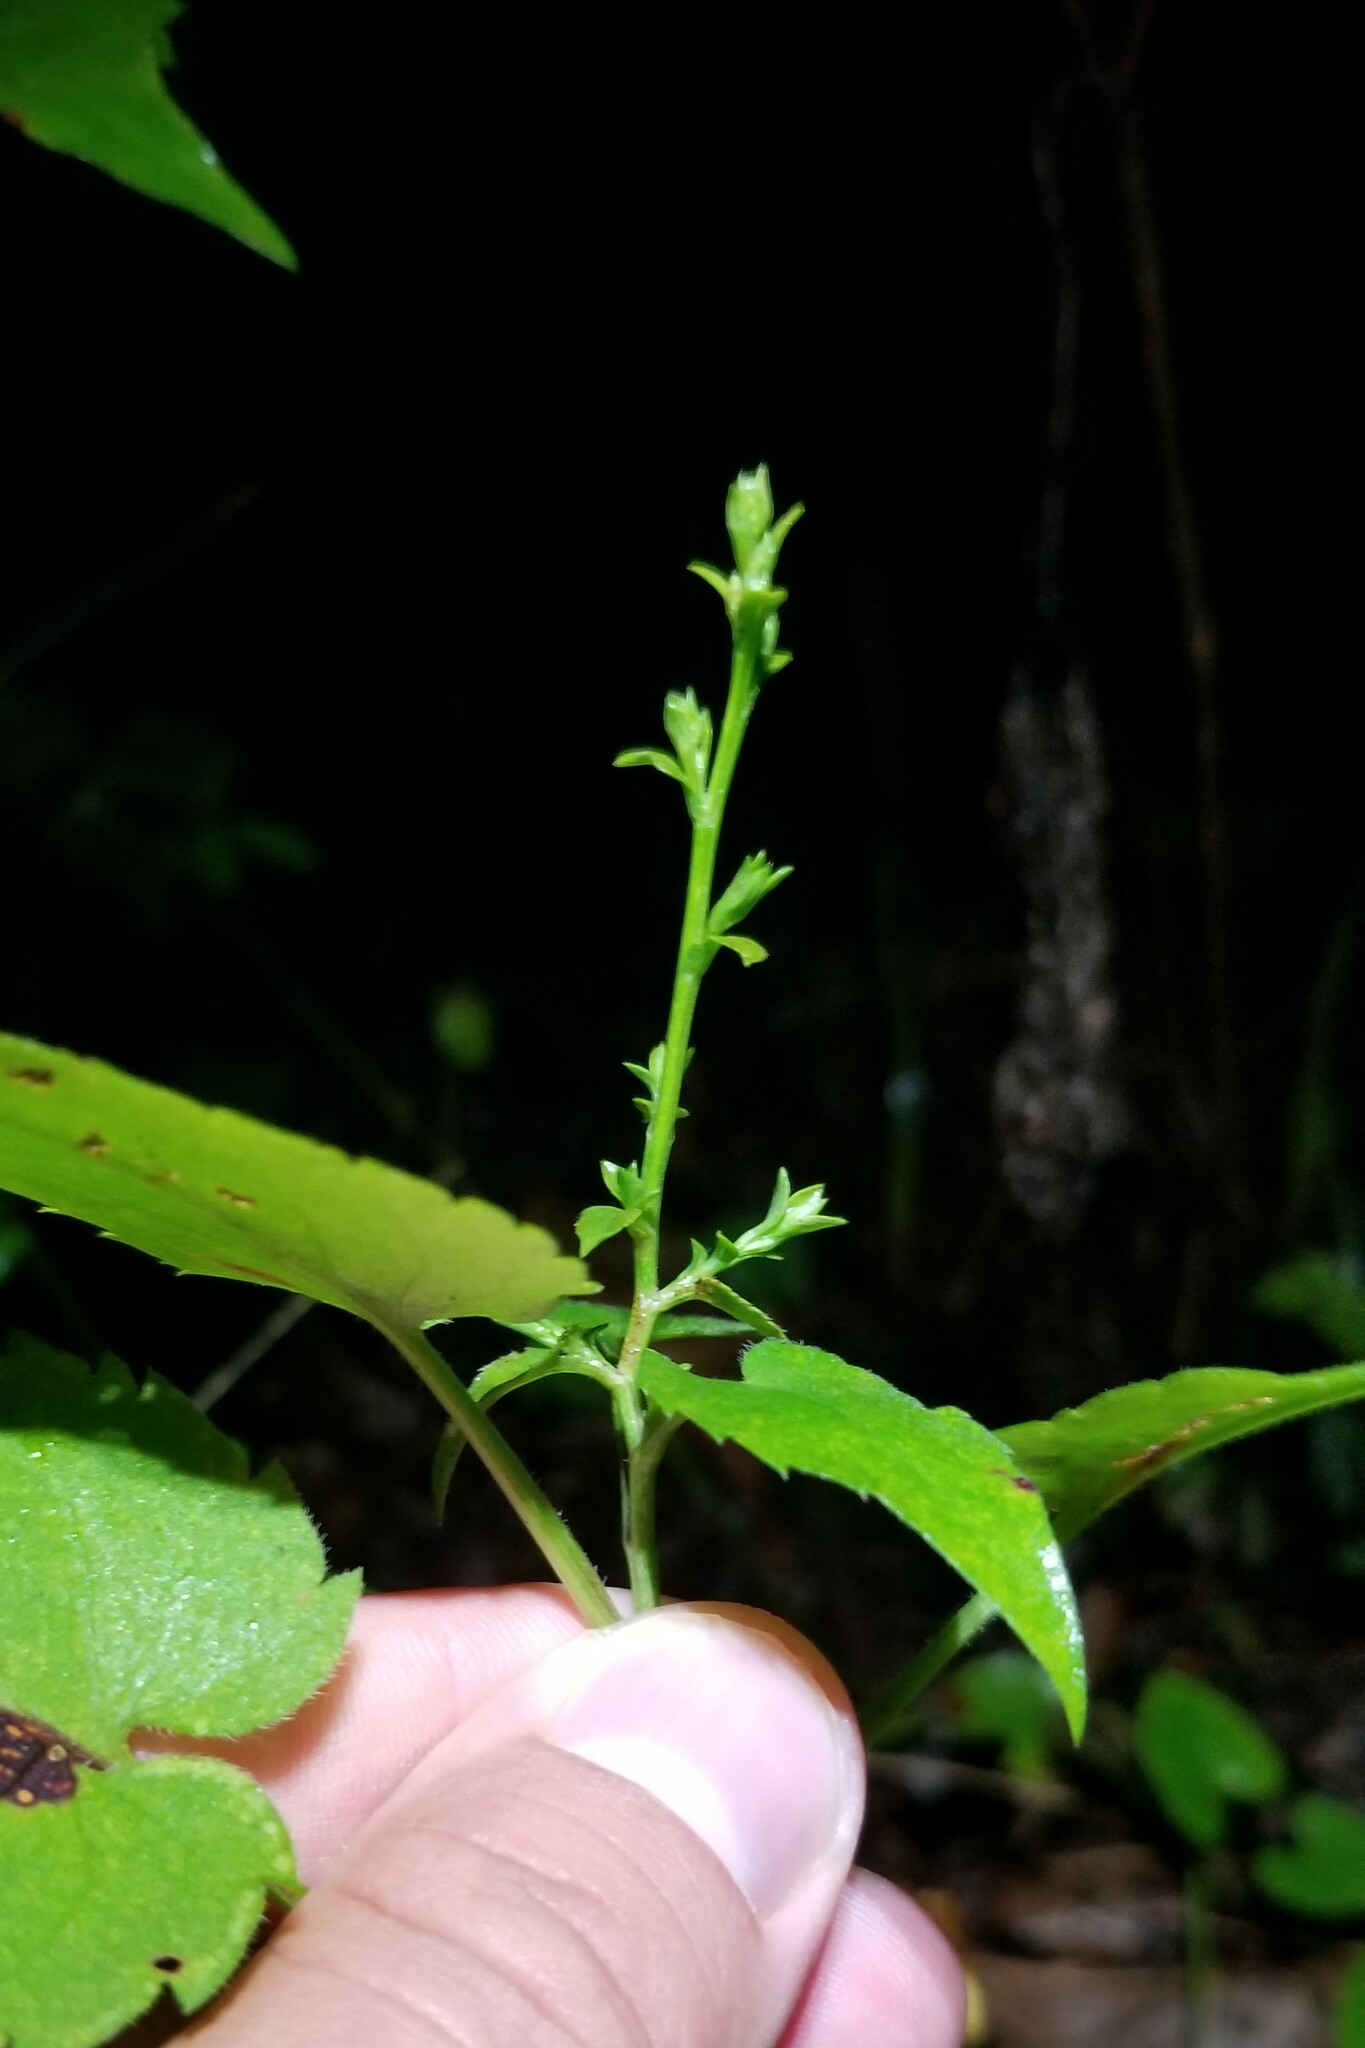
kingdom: Plantae
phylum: Tracheophyta
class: Magnoliopsida
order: Asterales
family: Asteraceae
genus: Symphyotrichum
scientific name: Symphyotrichum cordifolium
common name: Beeweed
